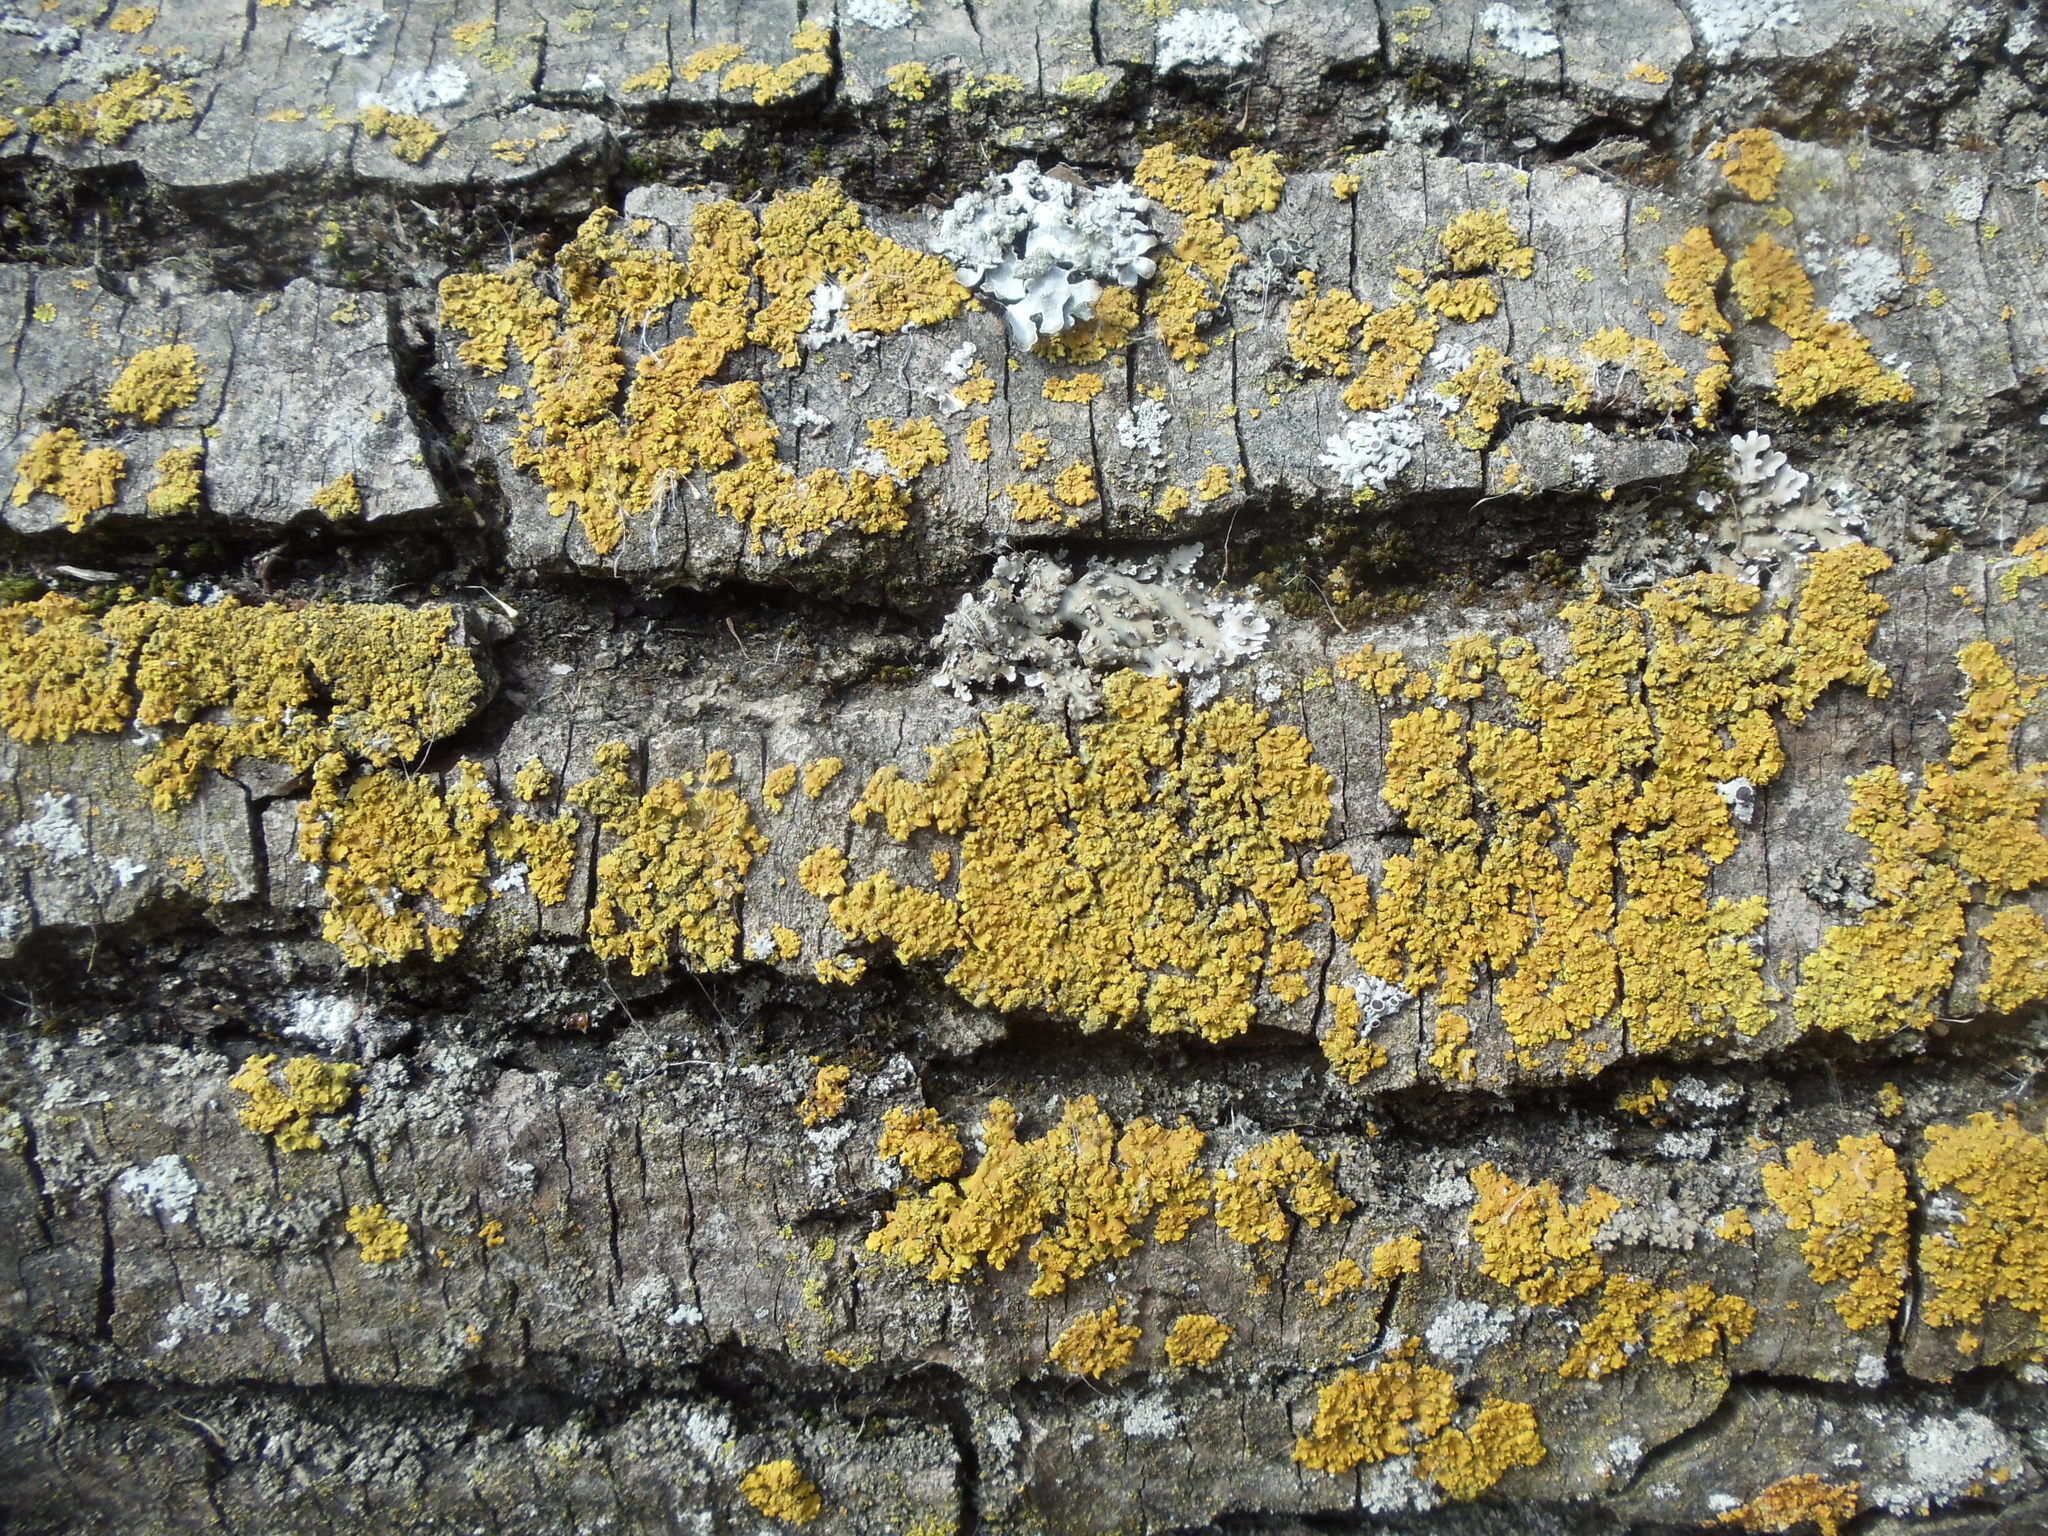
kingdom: Fungi
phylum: Ascomycota
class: Lecanoromycetes
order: Teloschistales
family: Teloschistaceae
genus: Oxneria
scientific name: Oxneria fallax
